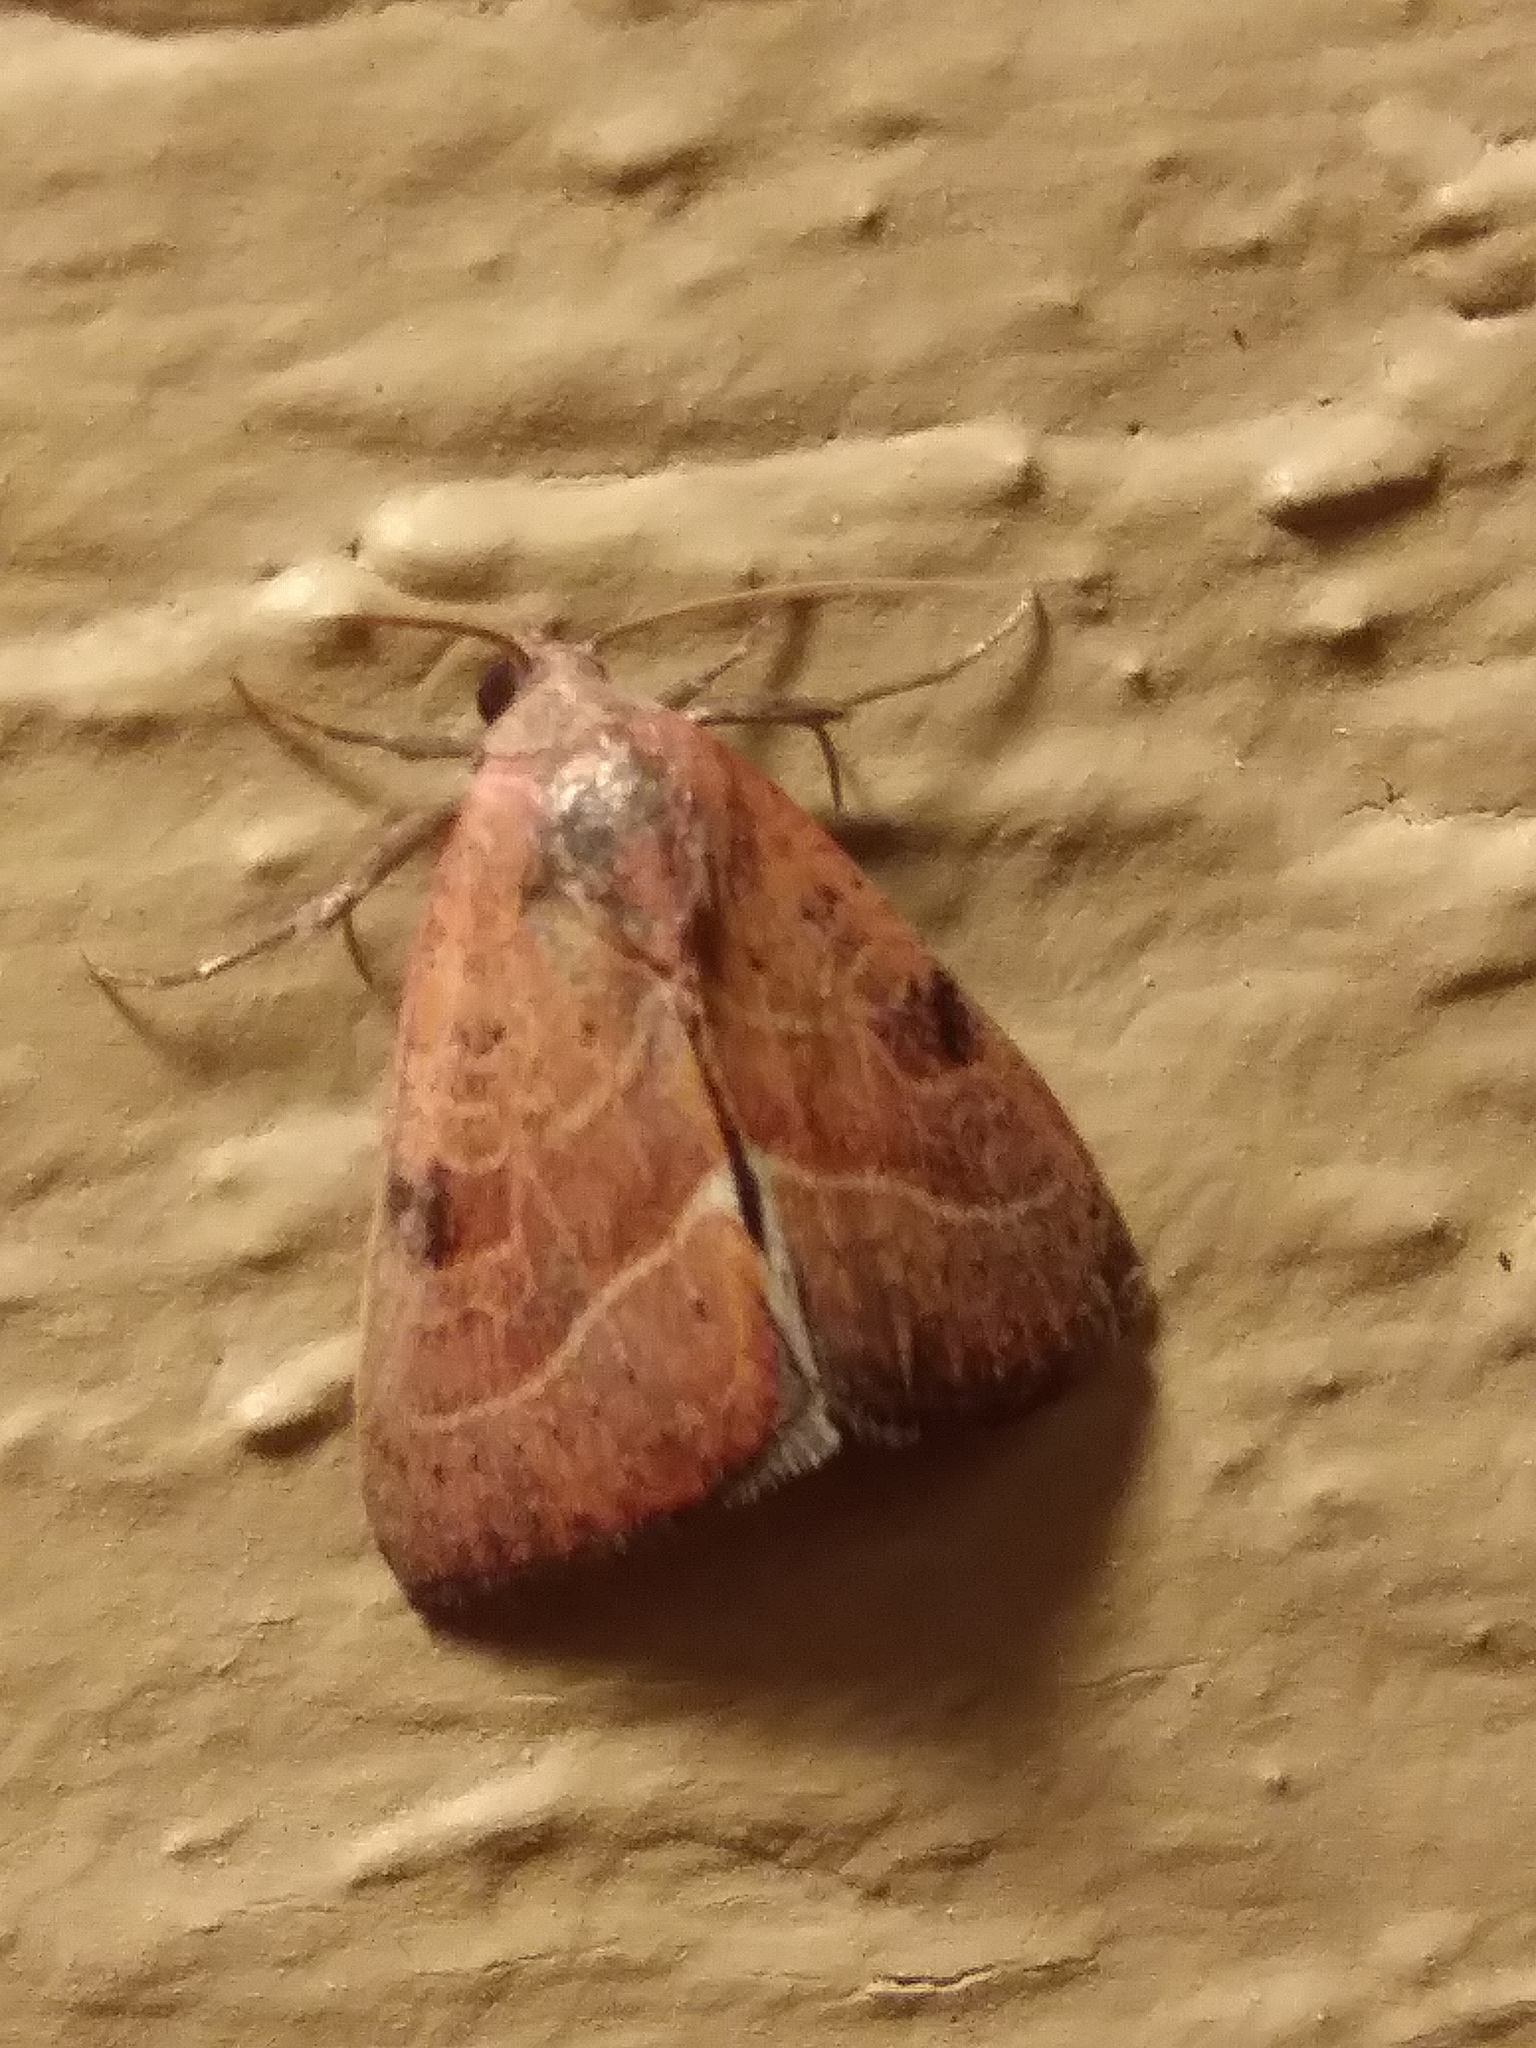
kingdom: Animalia
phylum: Arthropoda
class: Insecta
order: Lepidoptera
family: Noctuidae
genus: Galgula
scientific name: Galgula partita
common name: Wedgeling
